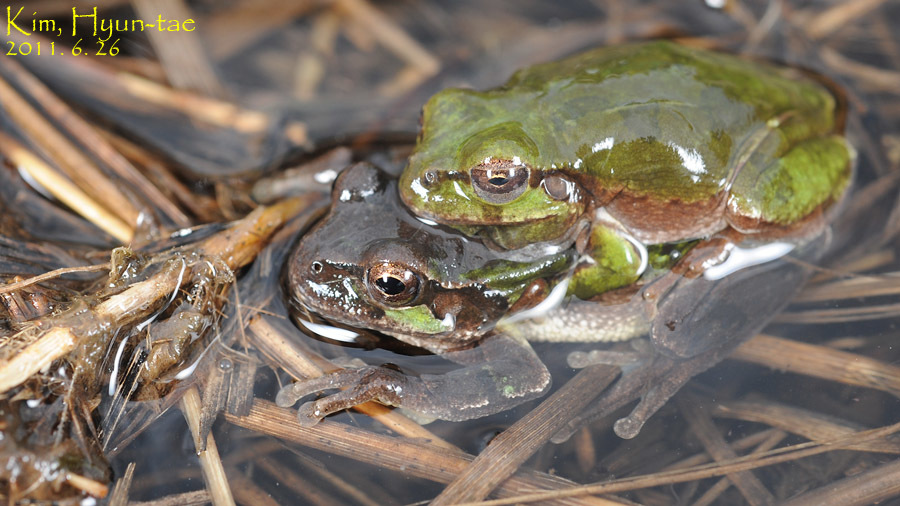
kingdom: Animalia
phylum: Chordata
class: Amphibia
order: Anura
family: Hylidae
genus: Dryophytes
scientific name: Dryophytes japonicus
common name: Japanese treefrog
